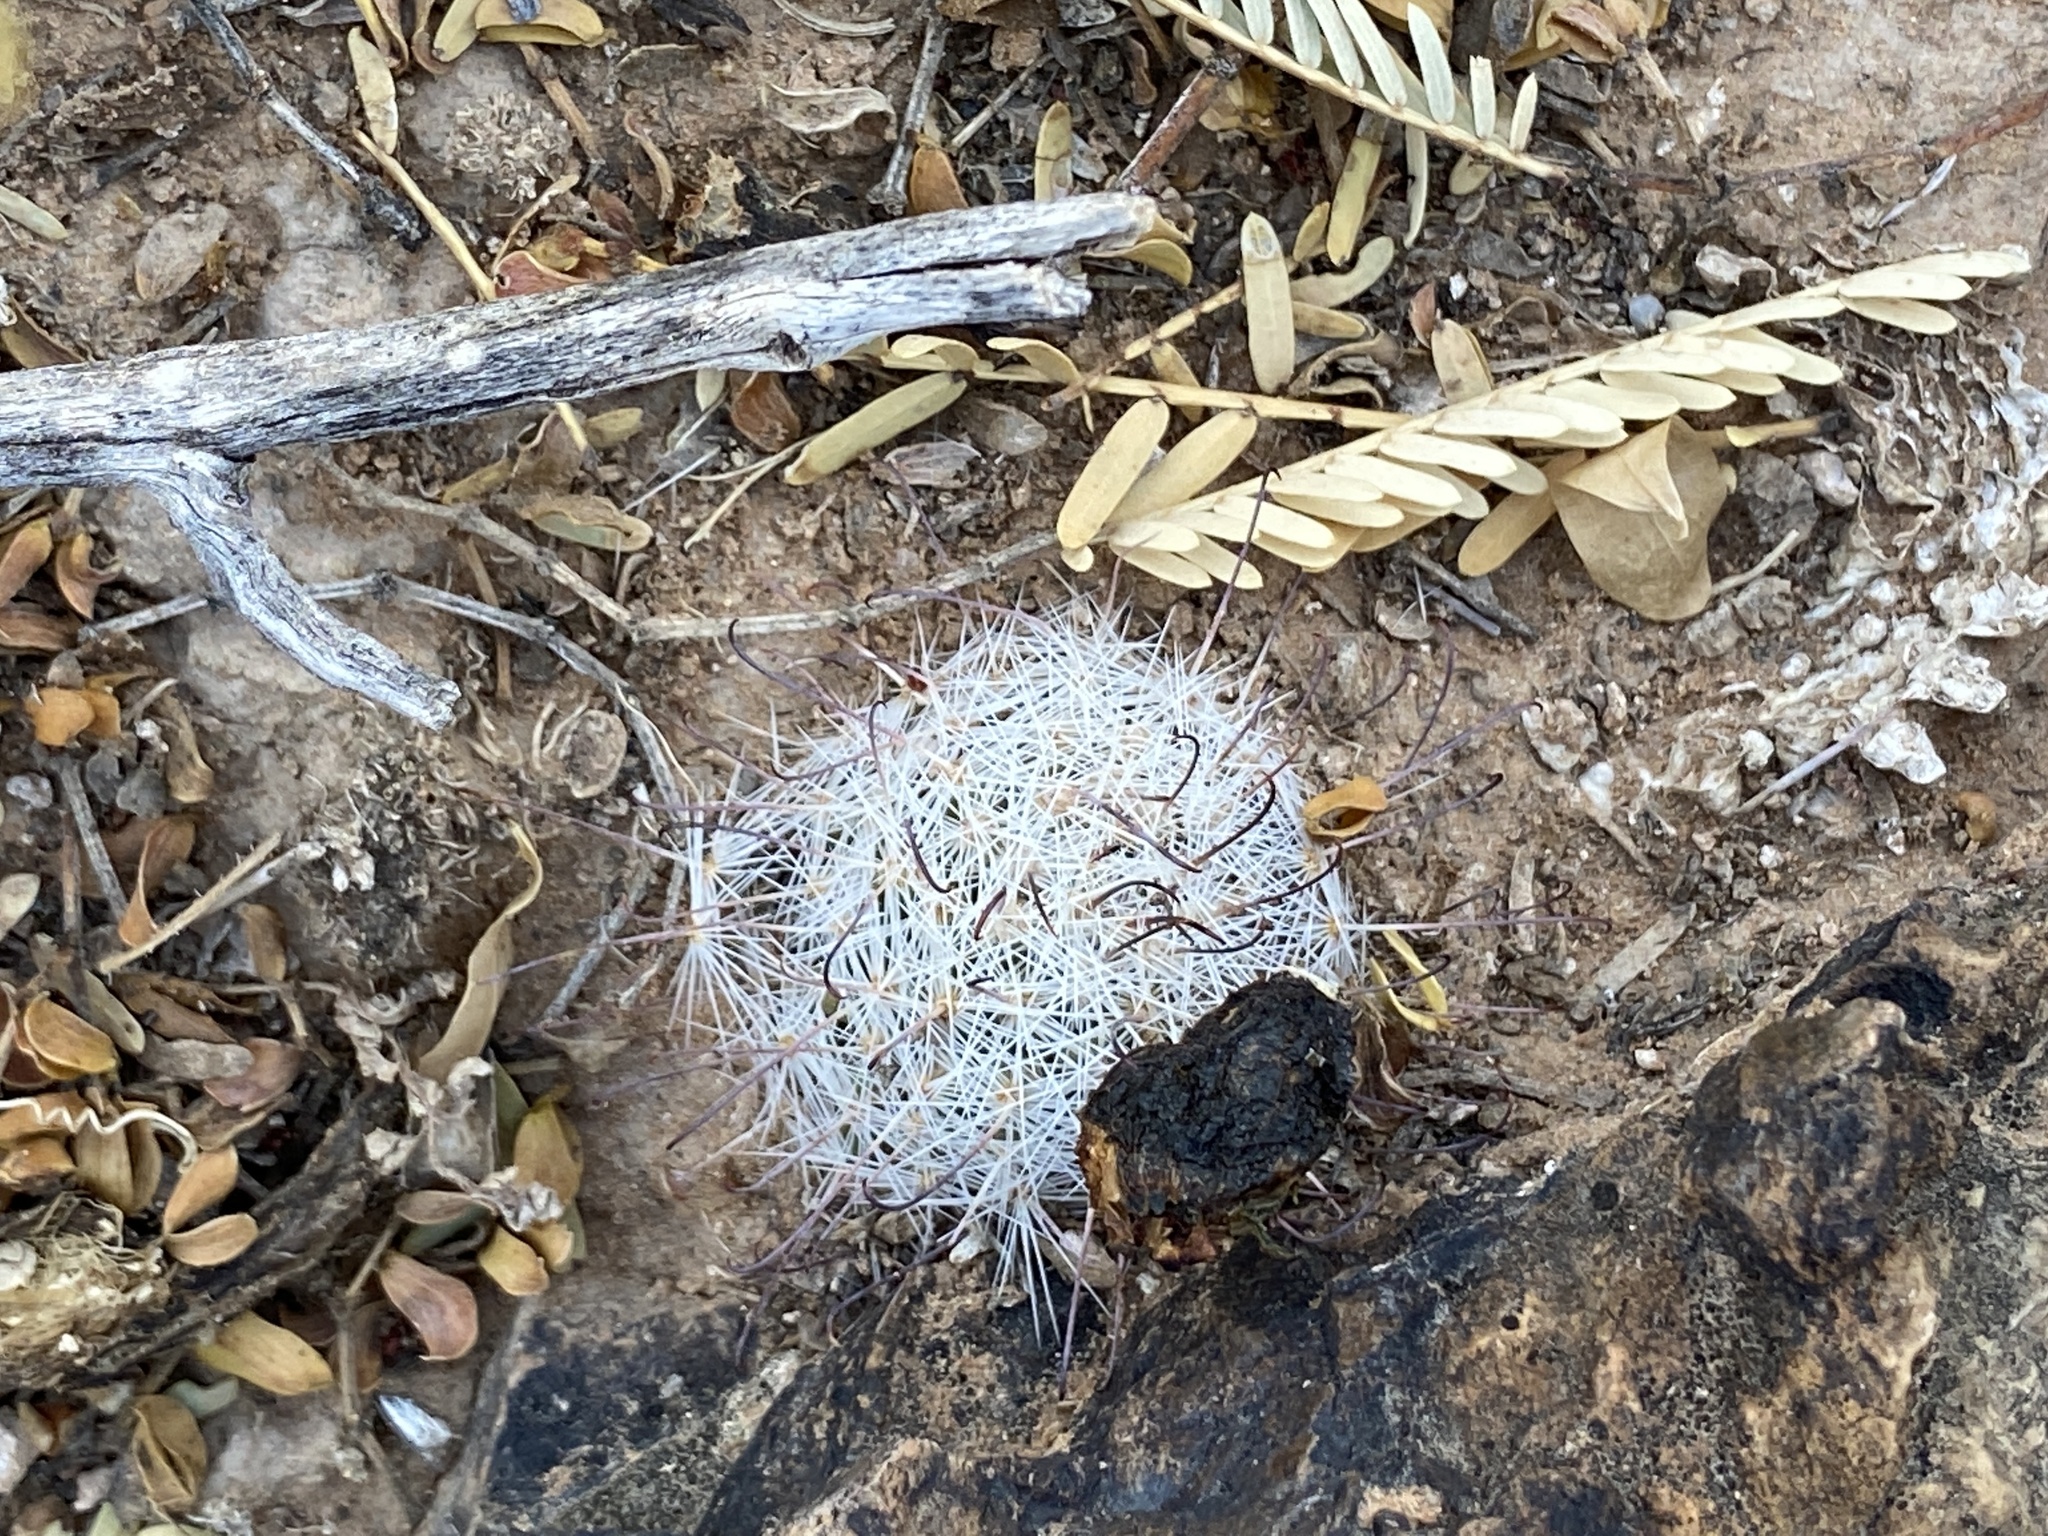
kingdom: Plantae
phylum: Tracheophyta
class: Magnoliopsida
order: Caryophyllales
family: Cactaceae
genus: Cochemiea
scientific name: Cochemiea grahamii
